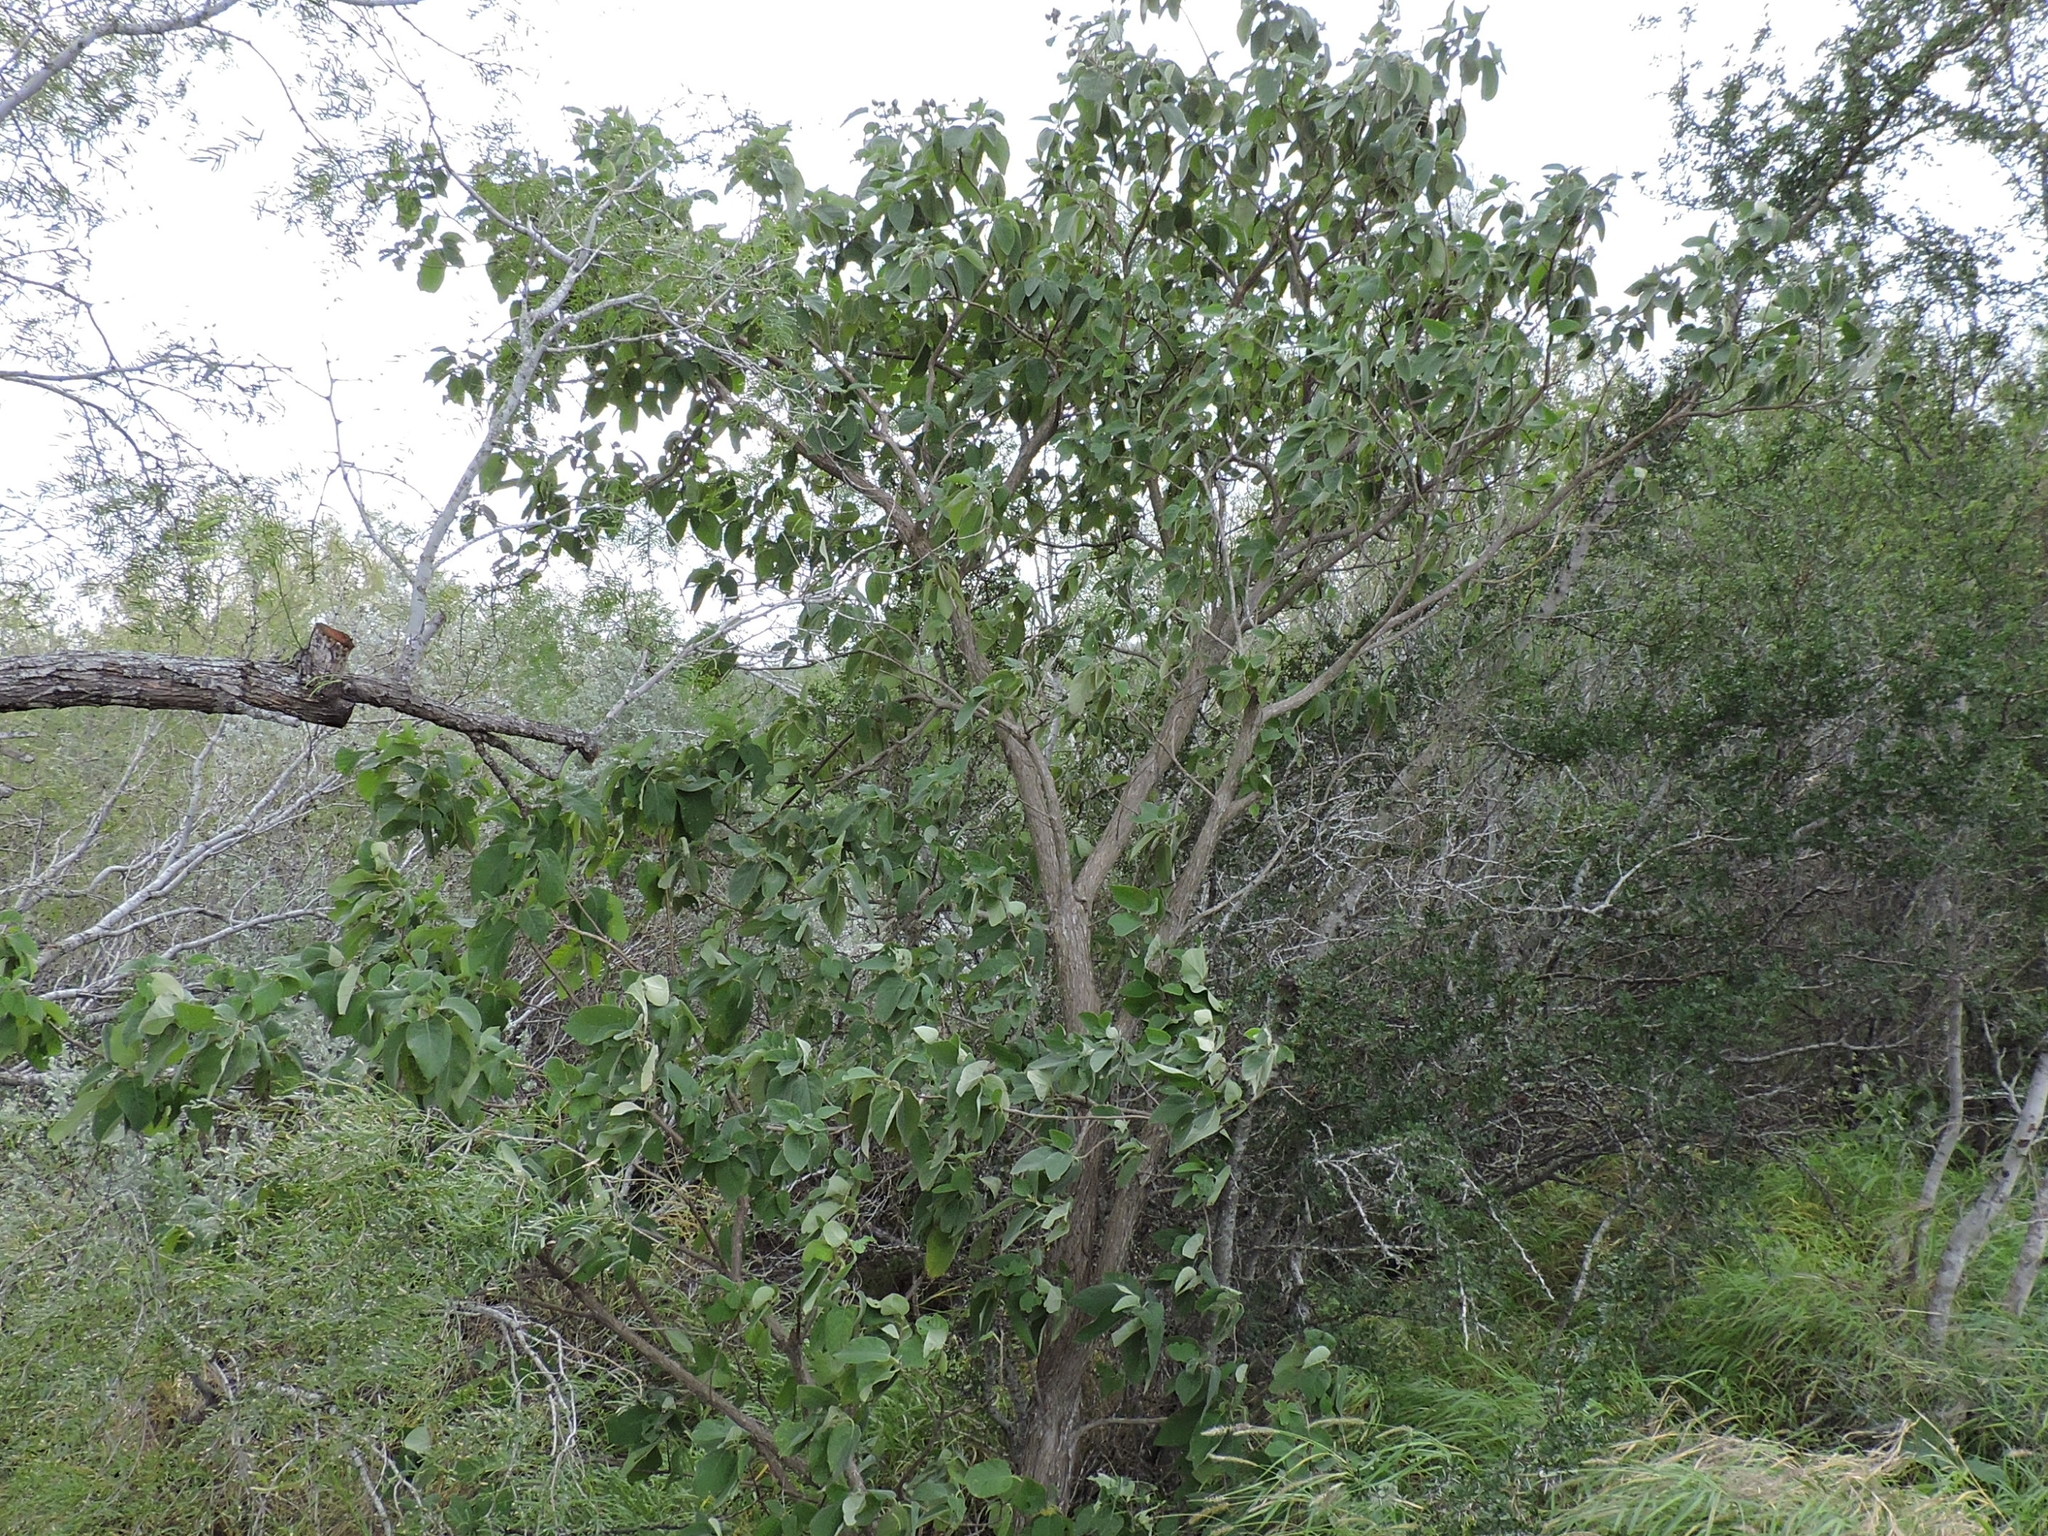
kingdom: Plantae
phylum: Tracheophyta
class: Magnoliopsida
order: Boraginales
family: Cordiaceae
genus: Cordia
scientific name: Cordia boissieri
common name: Mexican-olive
